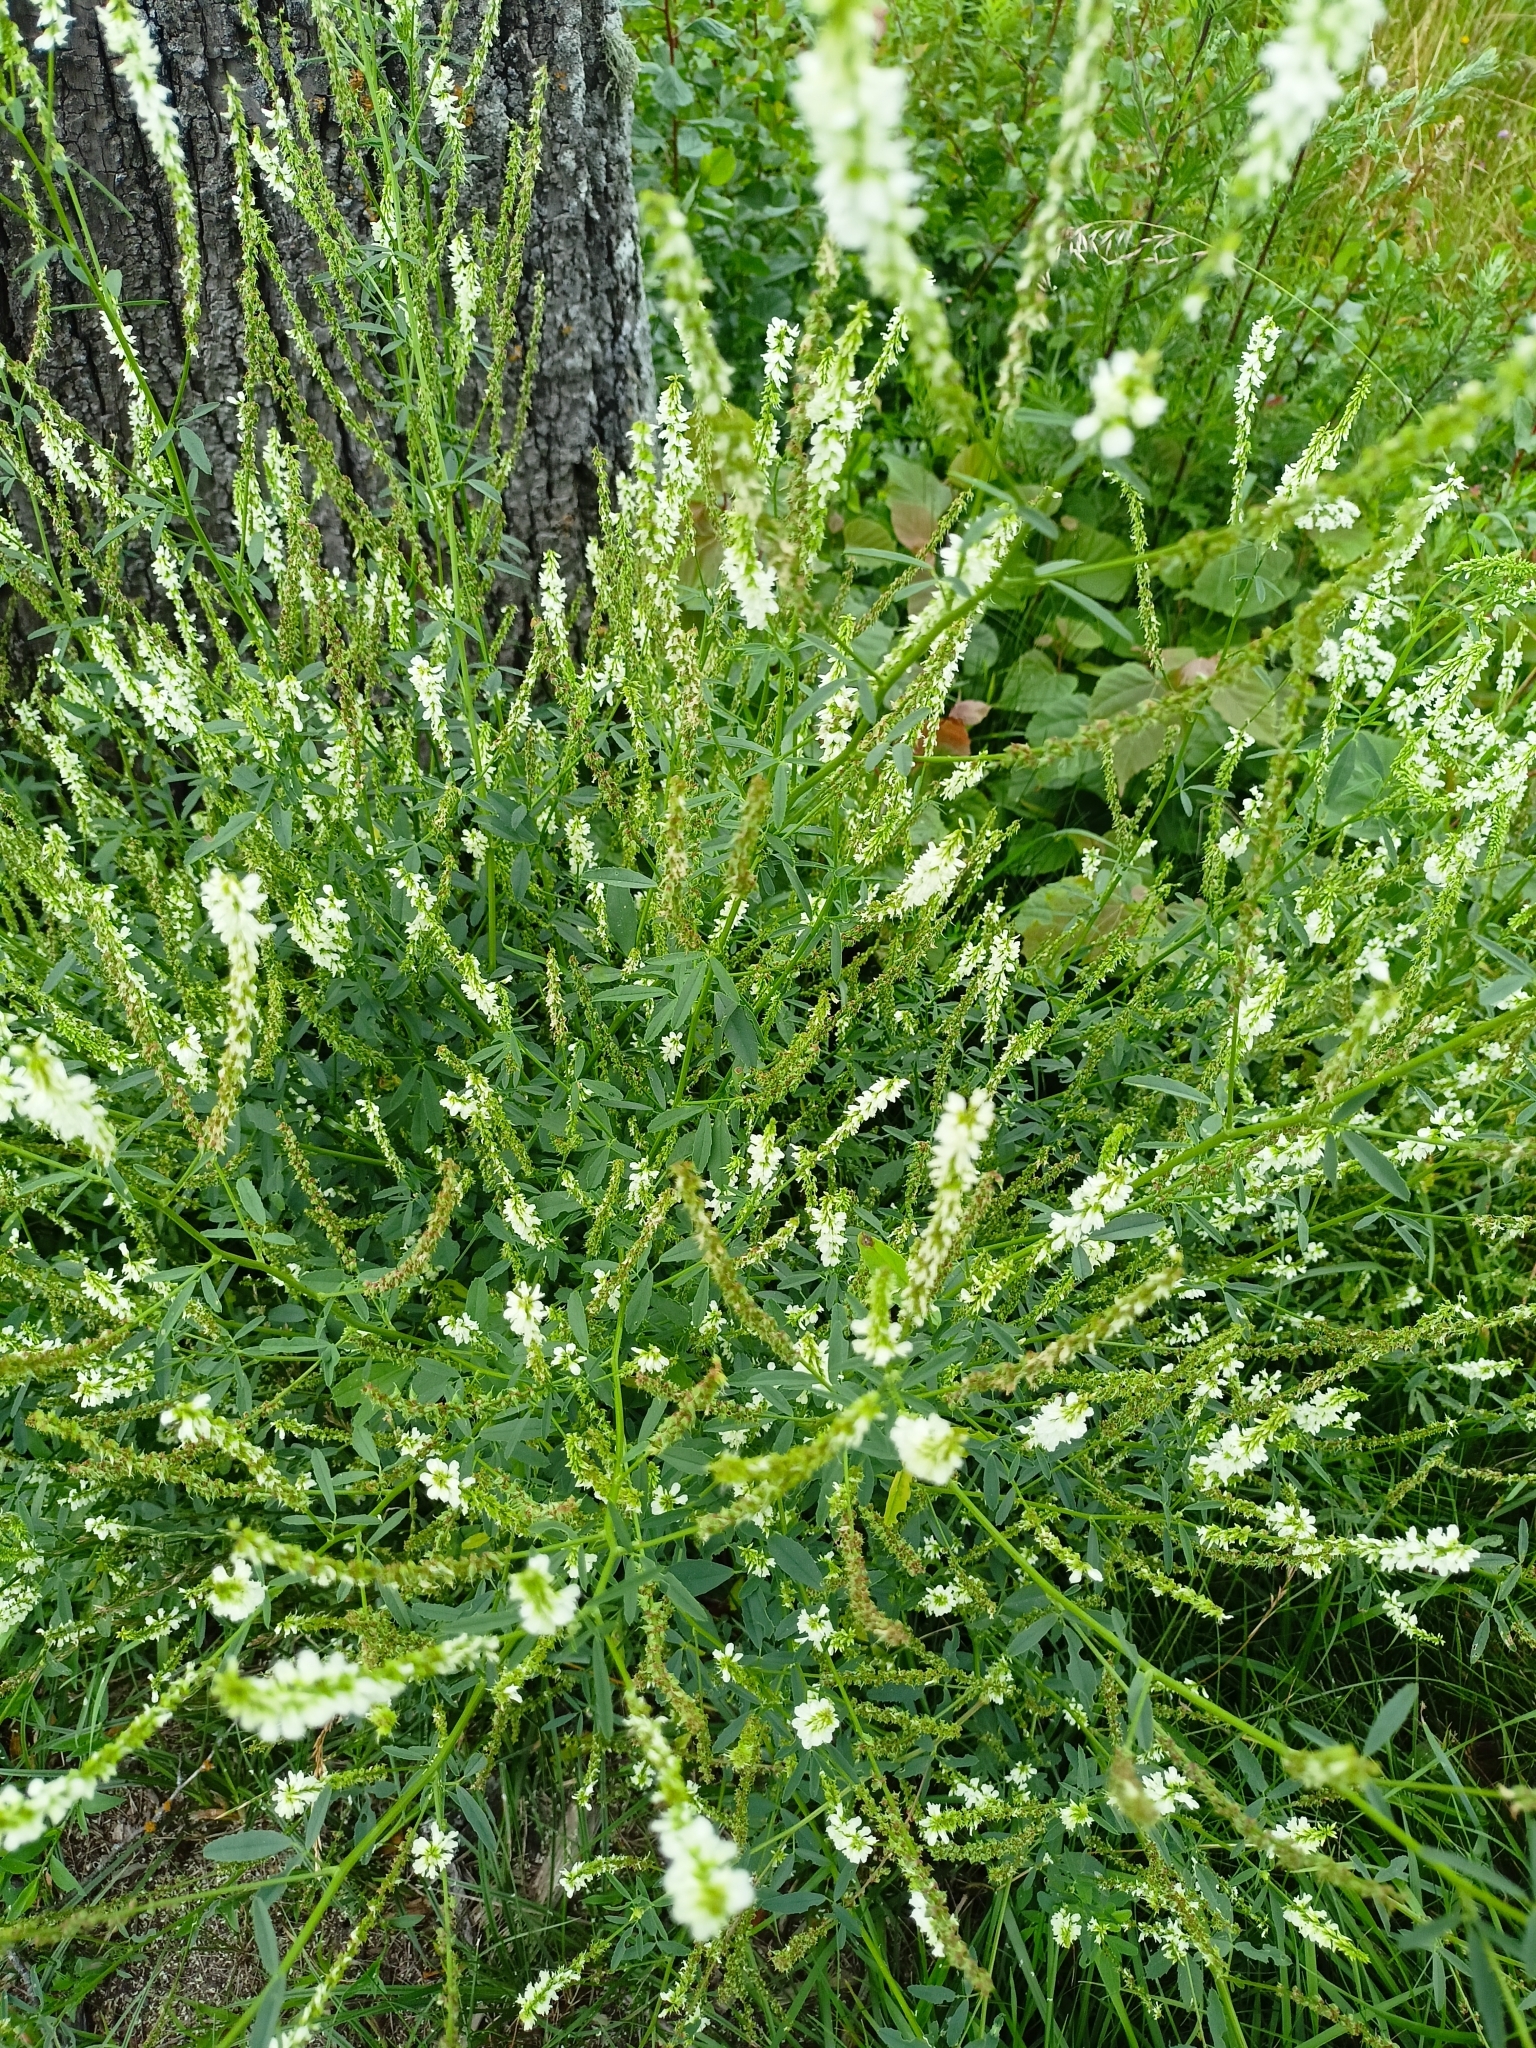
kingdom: Plantae
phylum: Tracheophyta
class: Magnoliopsida
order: Fabales
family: Fabaceae
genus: Melilotus
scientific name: Melilotus albus
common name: White melilot
